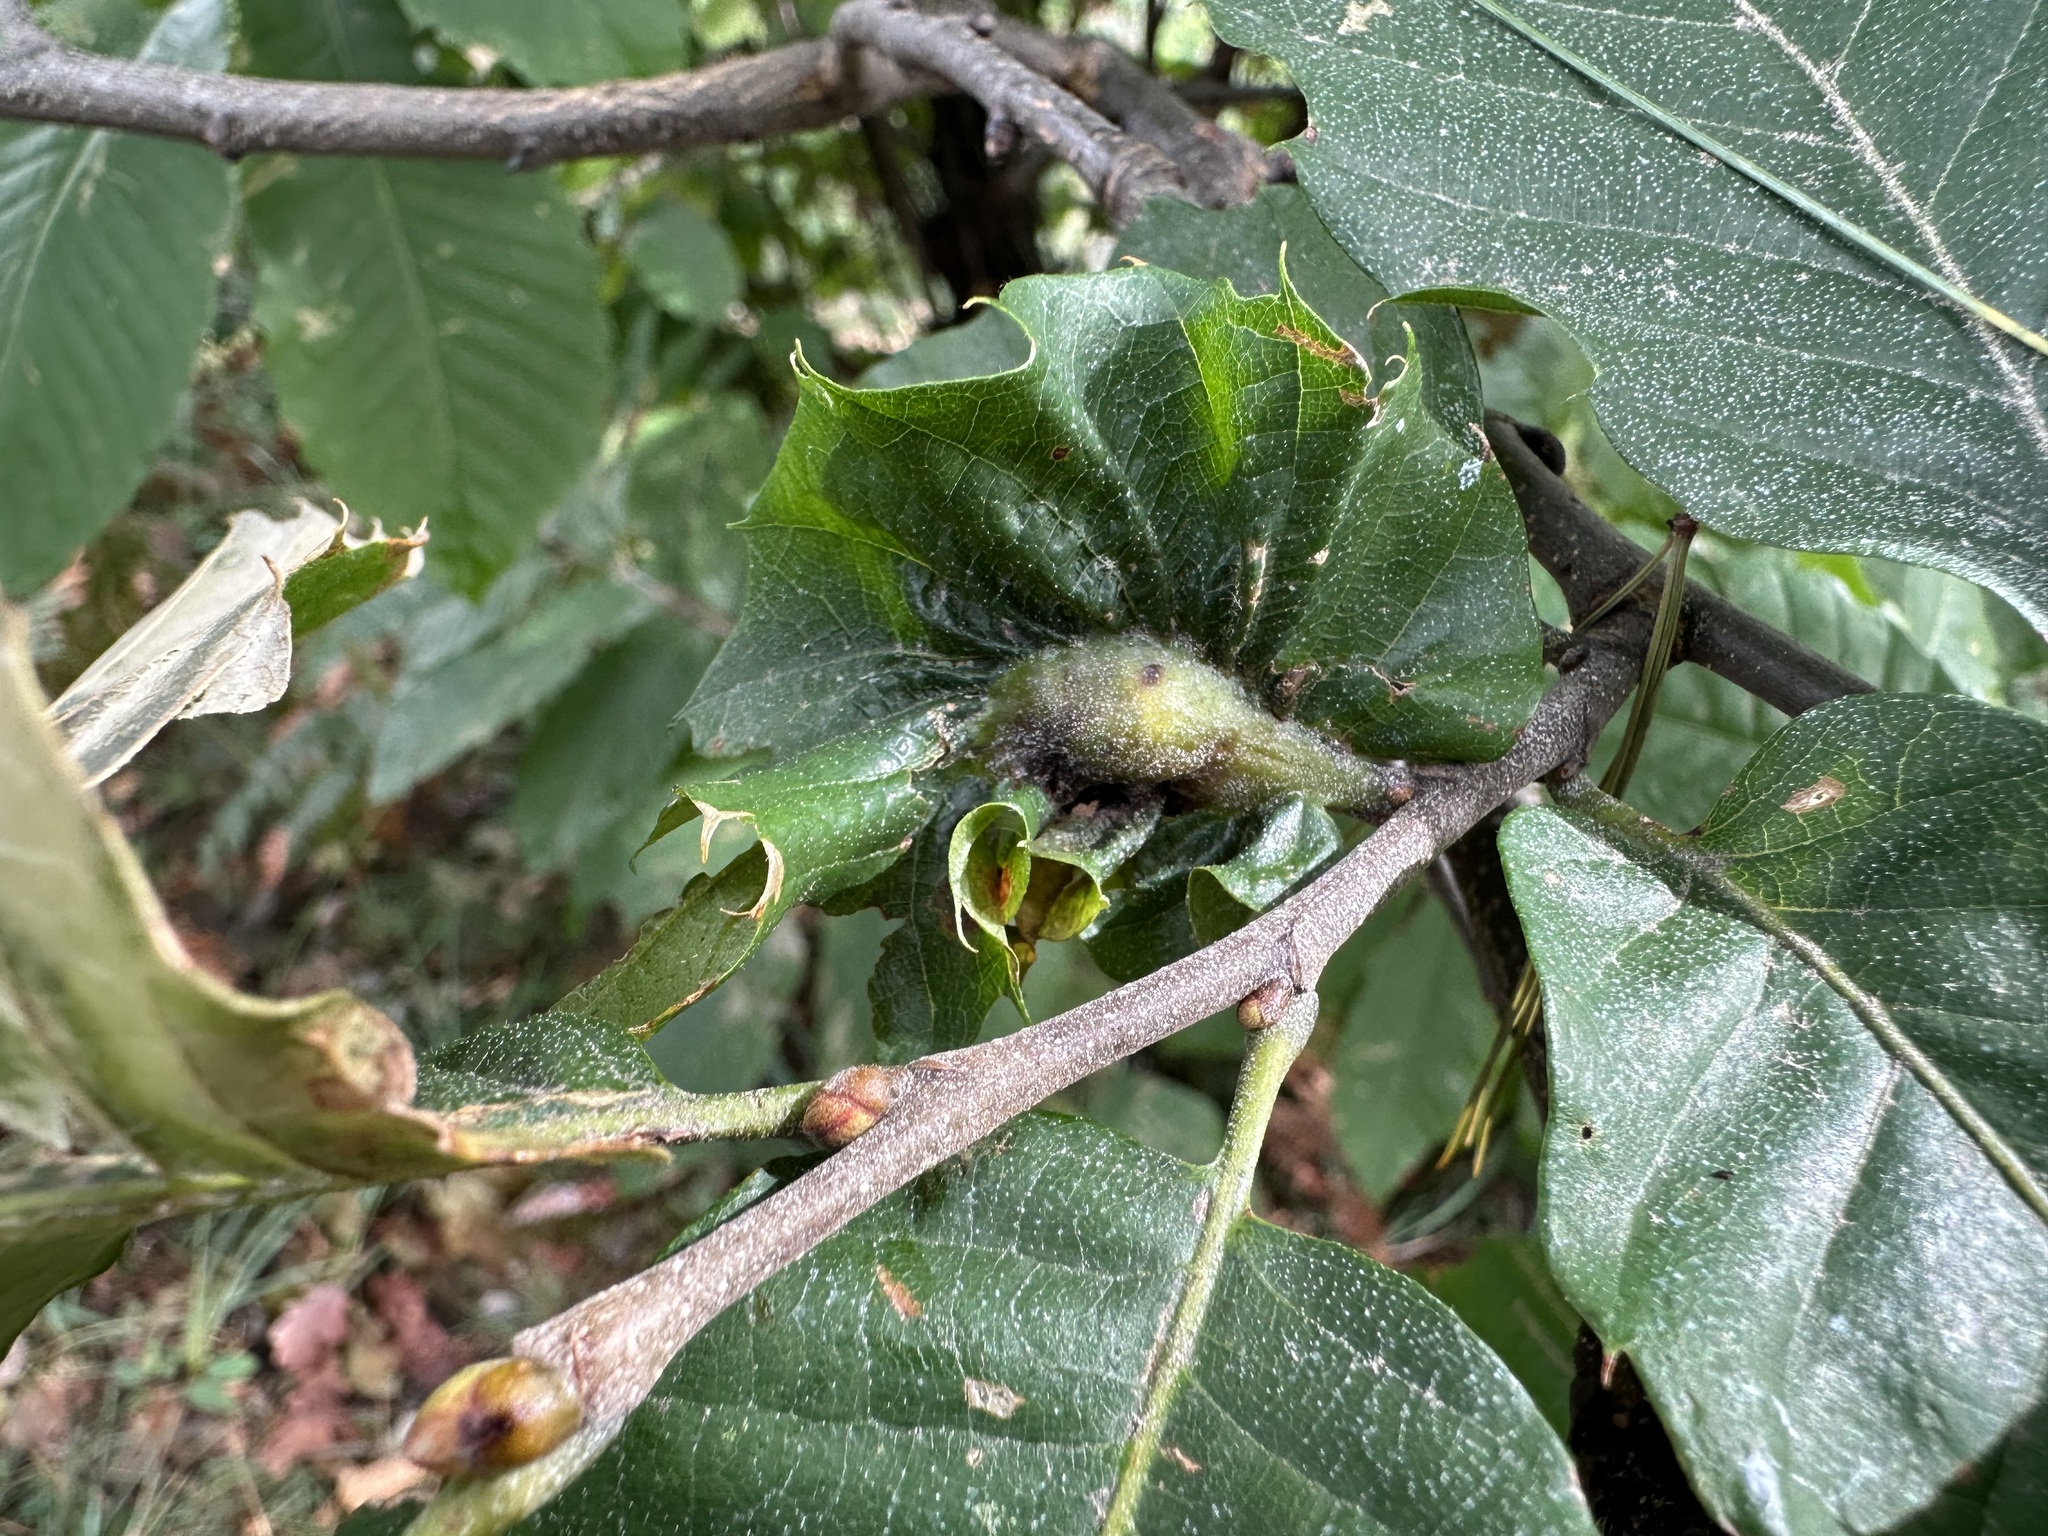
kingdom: Animalia
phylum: Arthropoda
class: Insecta
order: Hymenoptera
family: Cynipidae
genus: Dryocosmus
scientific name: Dryocosmus kuriphilus
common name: Asian chestnut gall wasp
